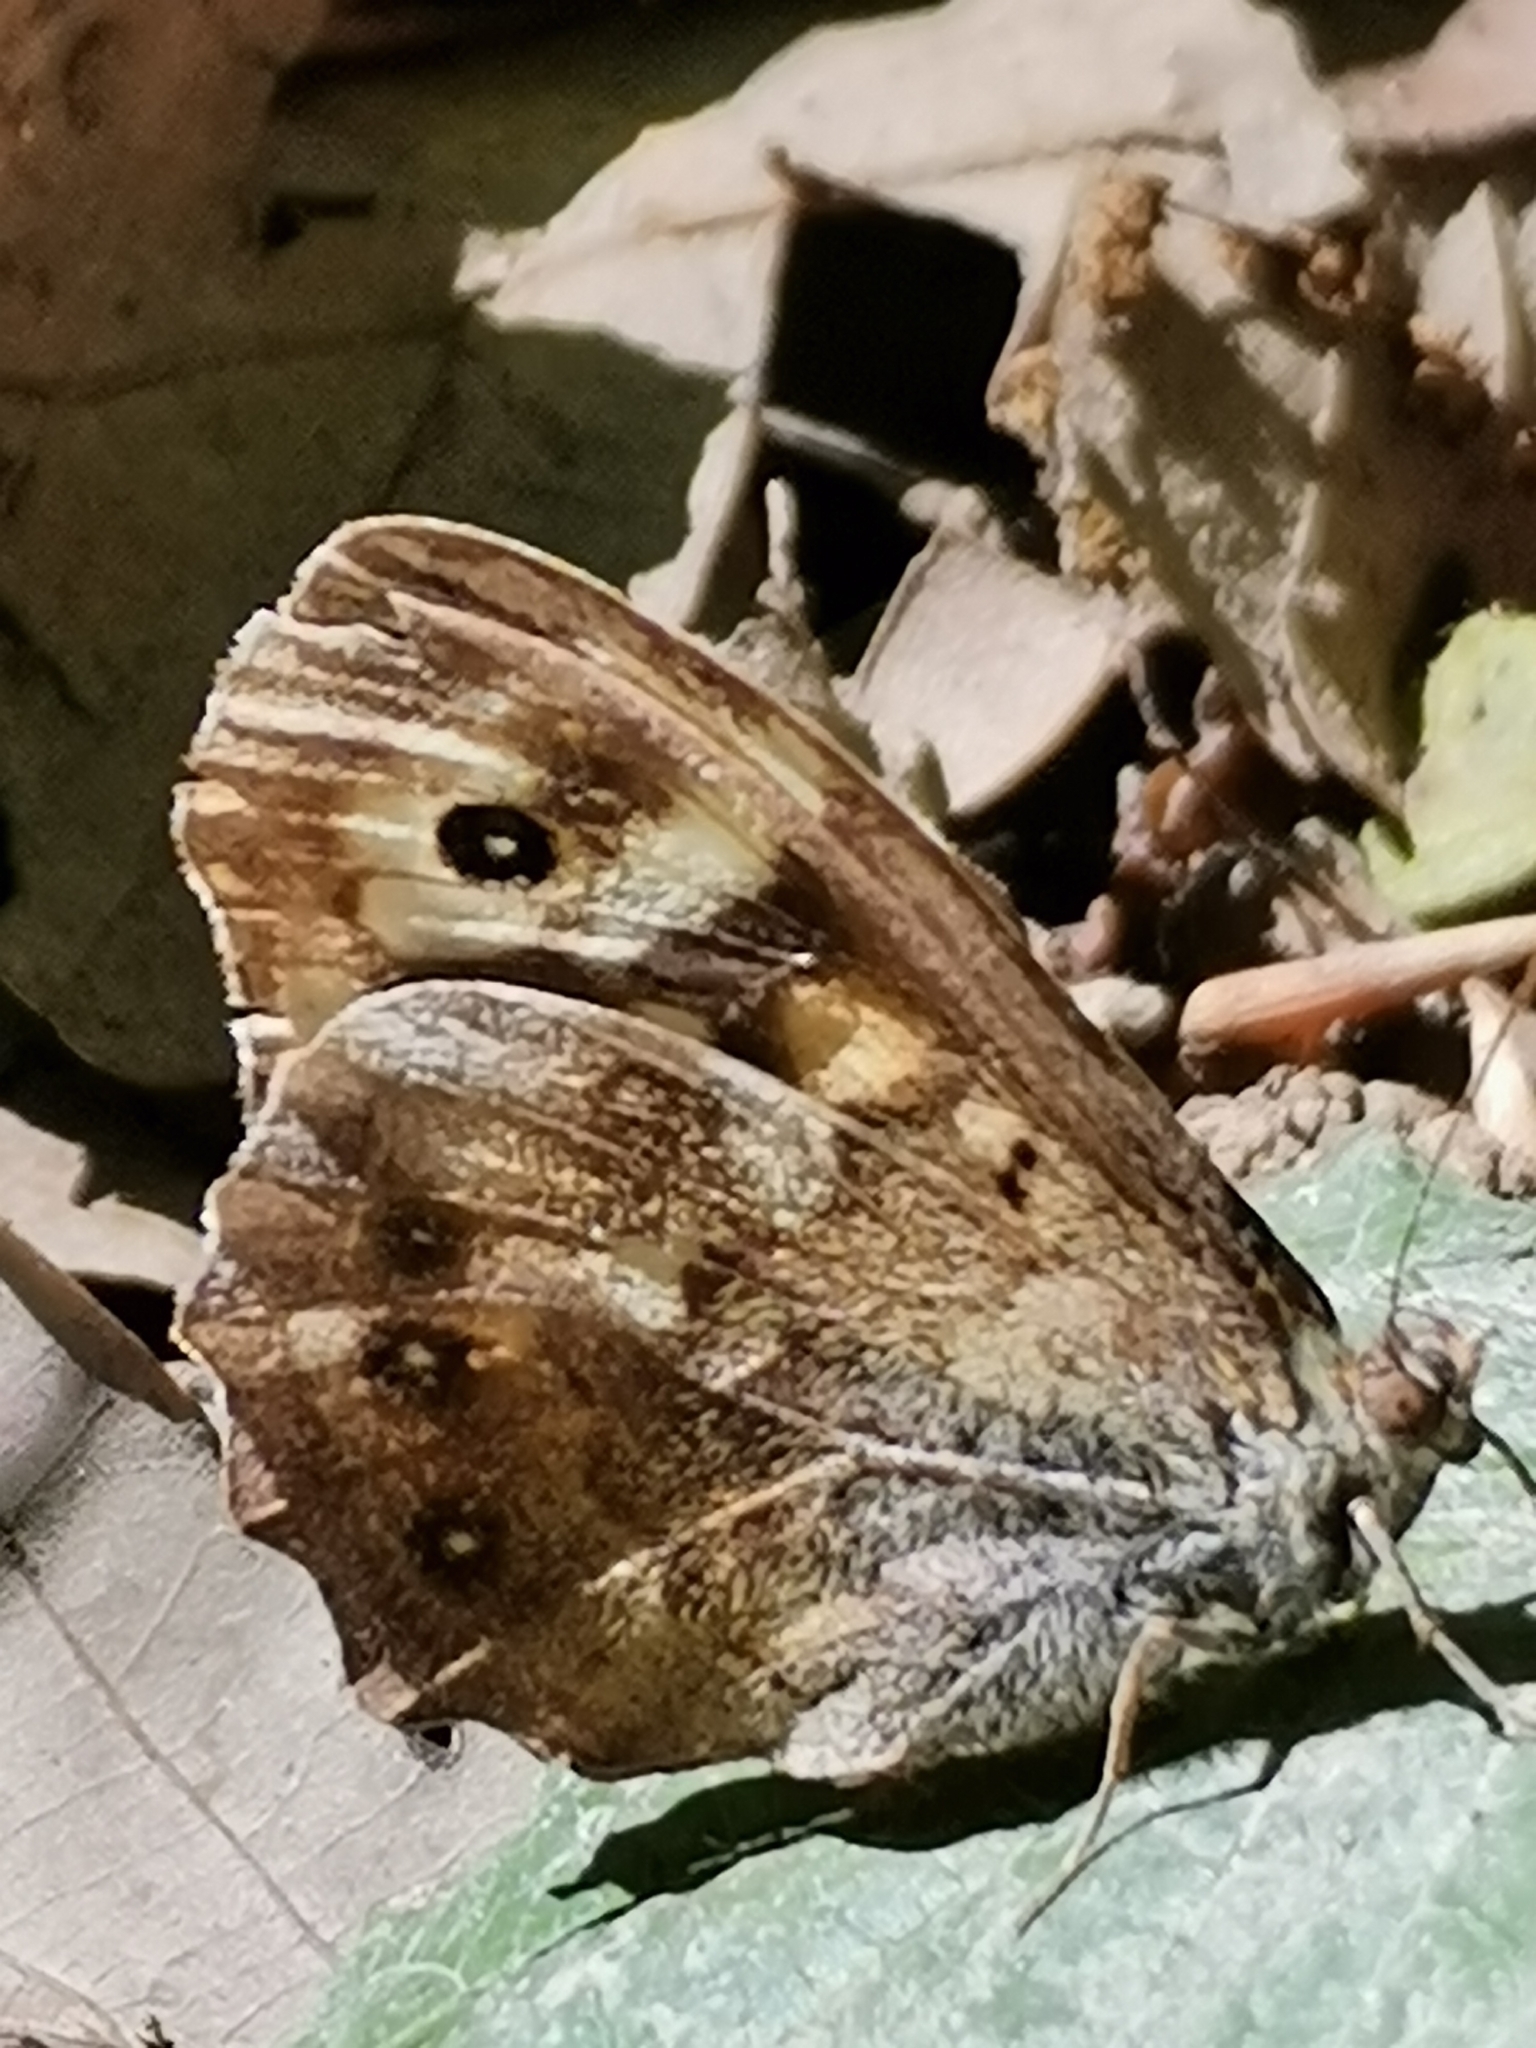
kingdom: Animalia
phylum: Arthropoda
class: Insecta
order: Lepidoptera
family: Nymphalidae
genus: Pararge
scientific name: Pararge aegeria
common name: Speckled wood
